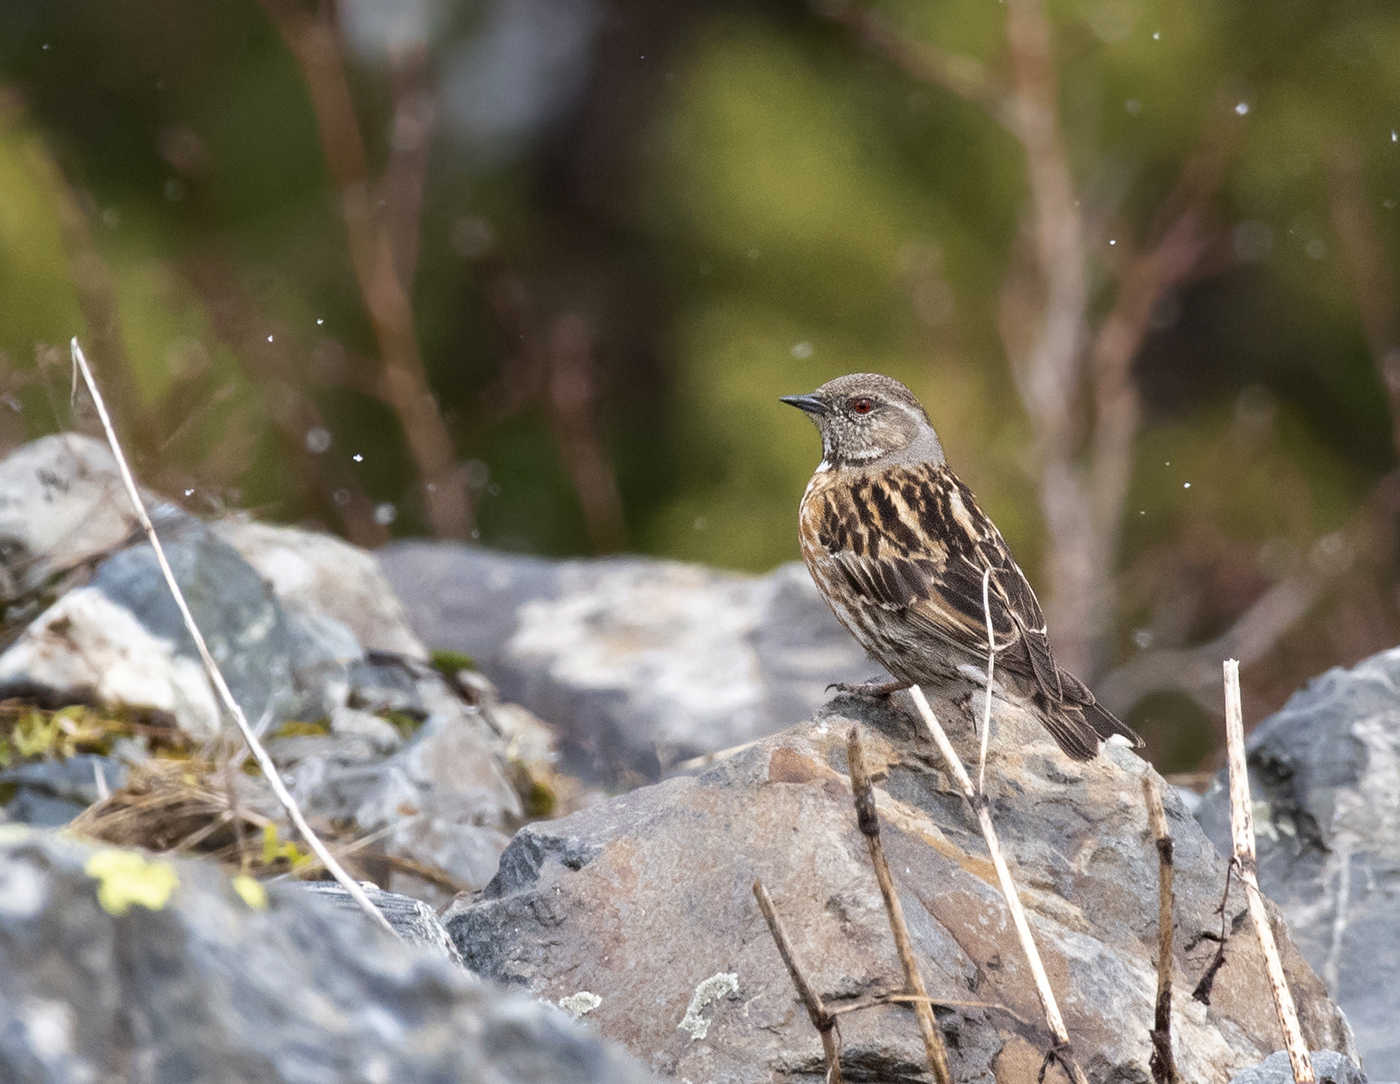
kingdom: Animalia
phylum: Chordata
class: Aves
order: Passeriformes
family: Prunellidae
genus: Prunella
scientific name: Prunella himalayana
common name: Altai accentor
